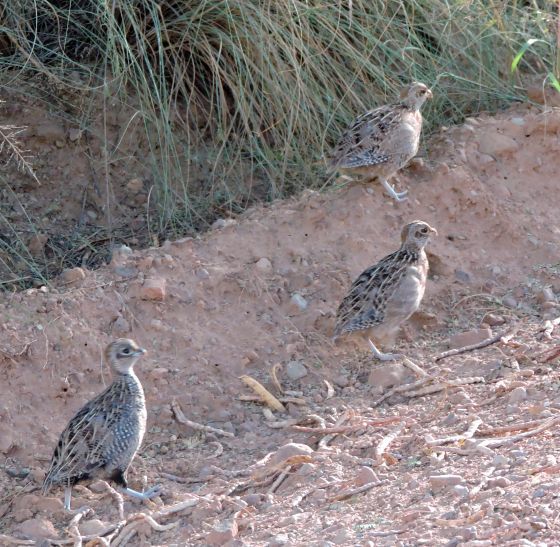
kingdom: Animalia
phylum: Chordata
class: Aves
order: Galliformes
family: Odontophoridae
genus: Cyrtonyx
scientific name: Cyrtonyx montezumae
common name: Montezuma quail
